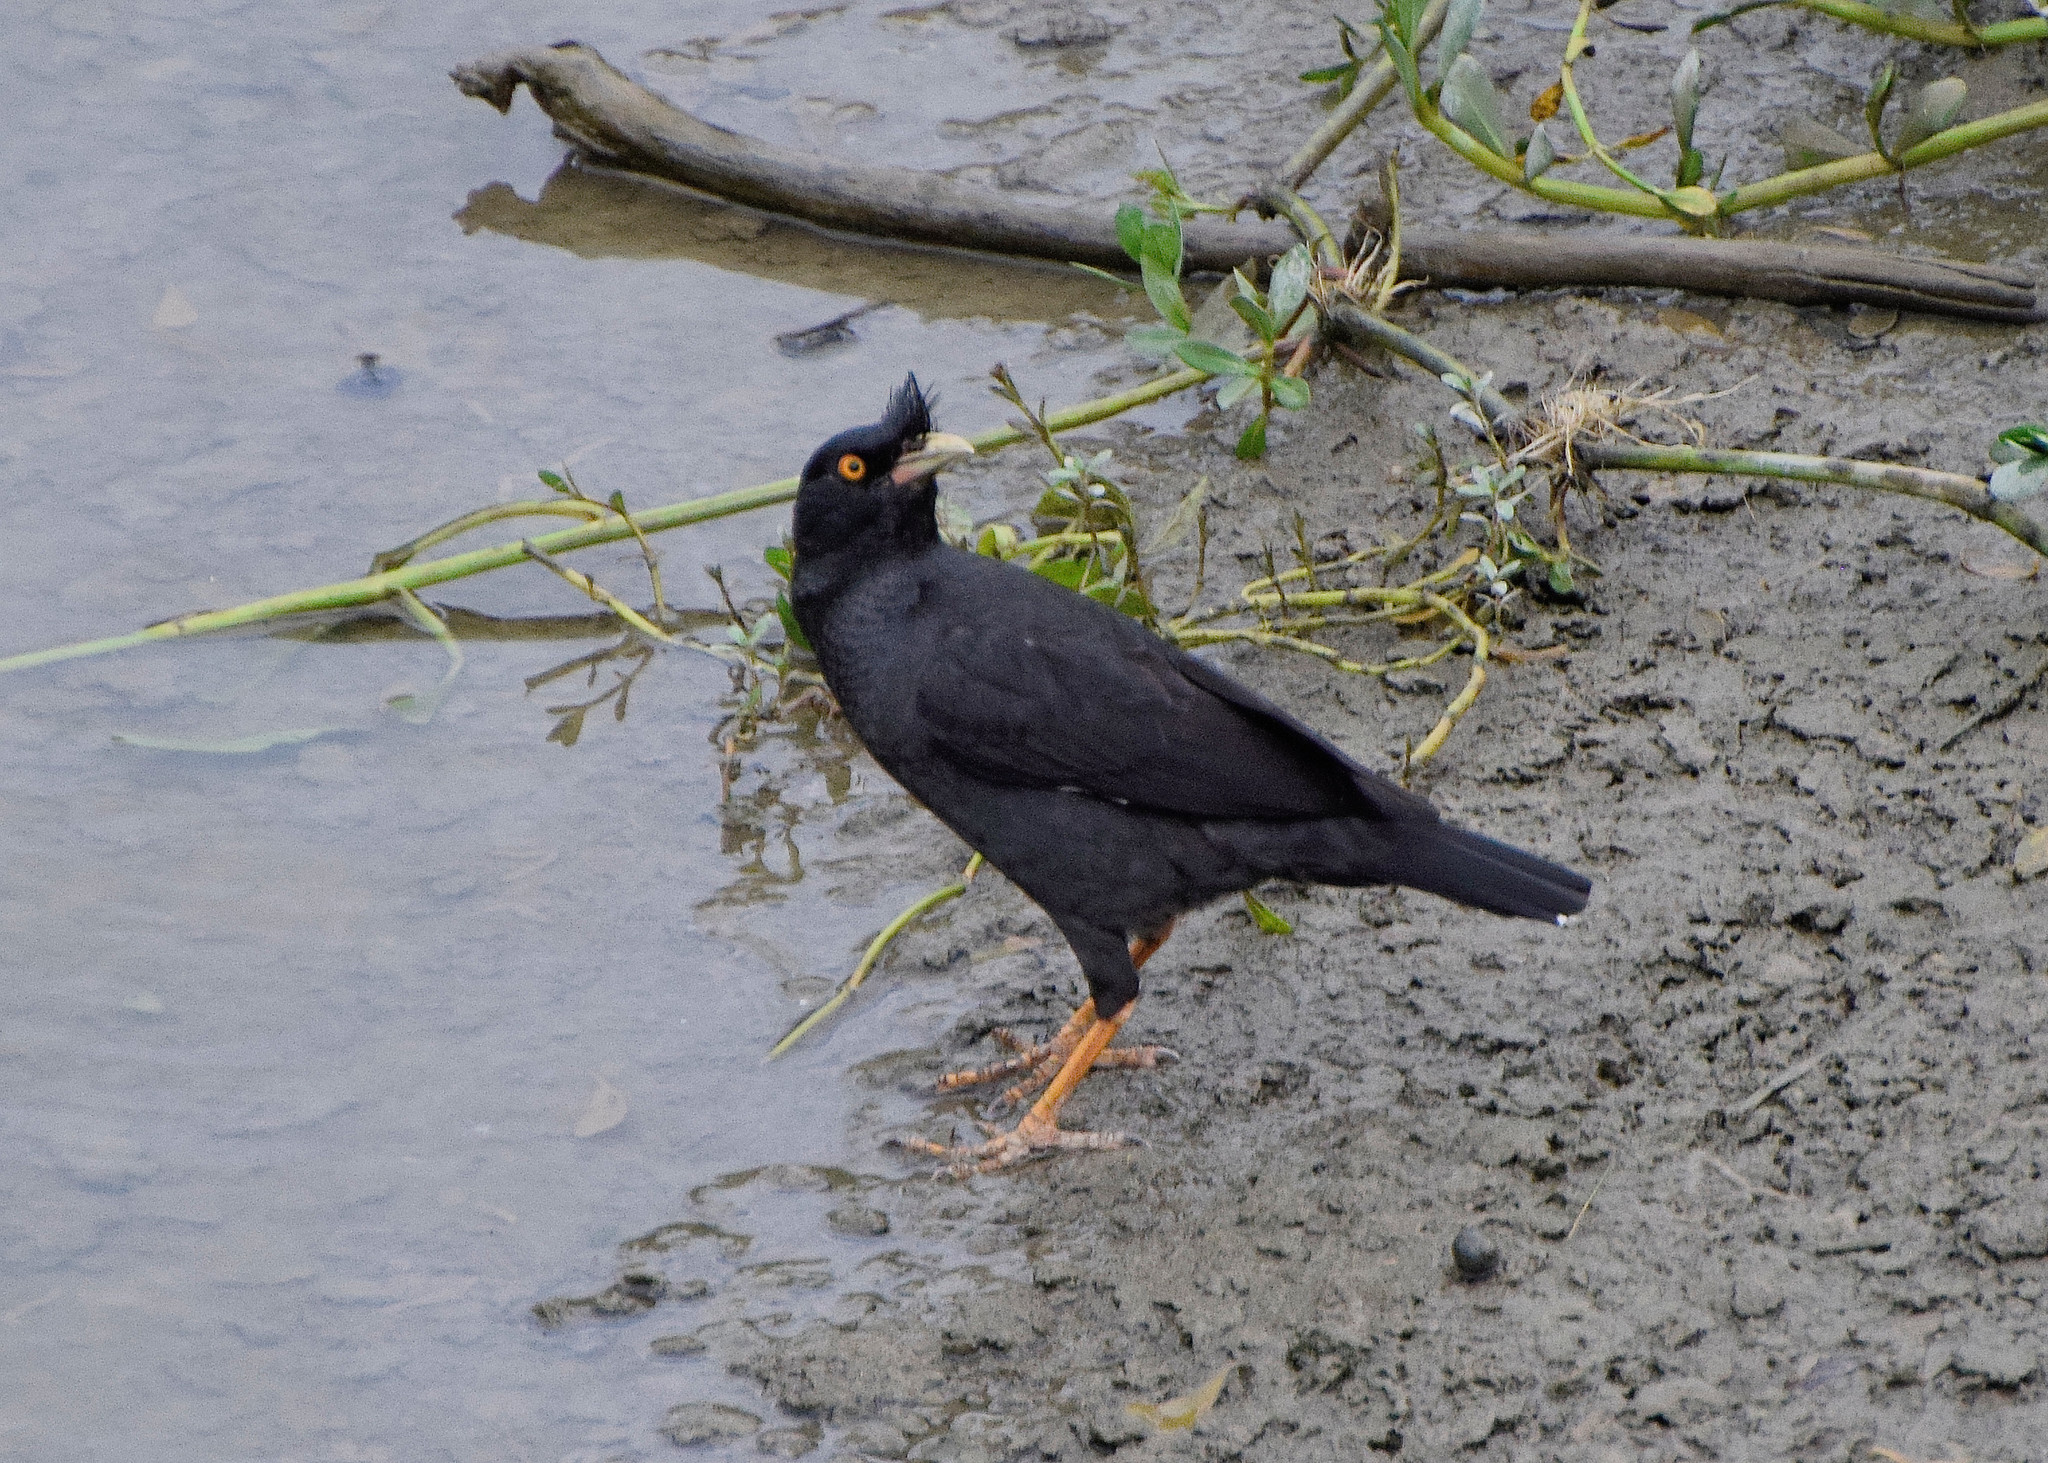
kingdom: Animalia
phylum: Chordata
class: Aves
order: Passeriformes
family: Sturnidae
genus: Acridotheres
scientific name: Acridotheres cristatellus
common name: Crested myna
